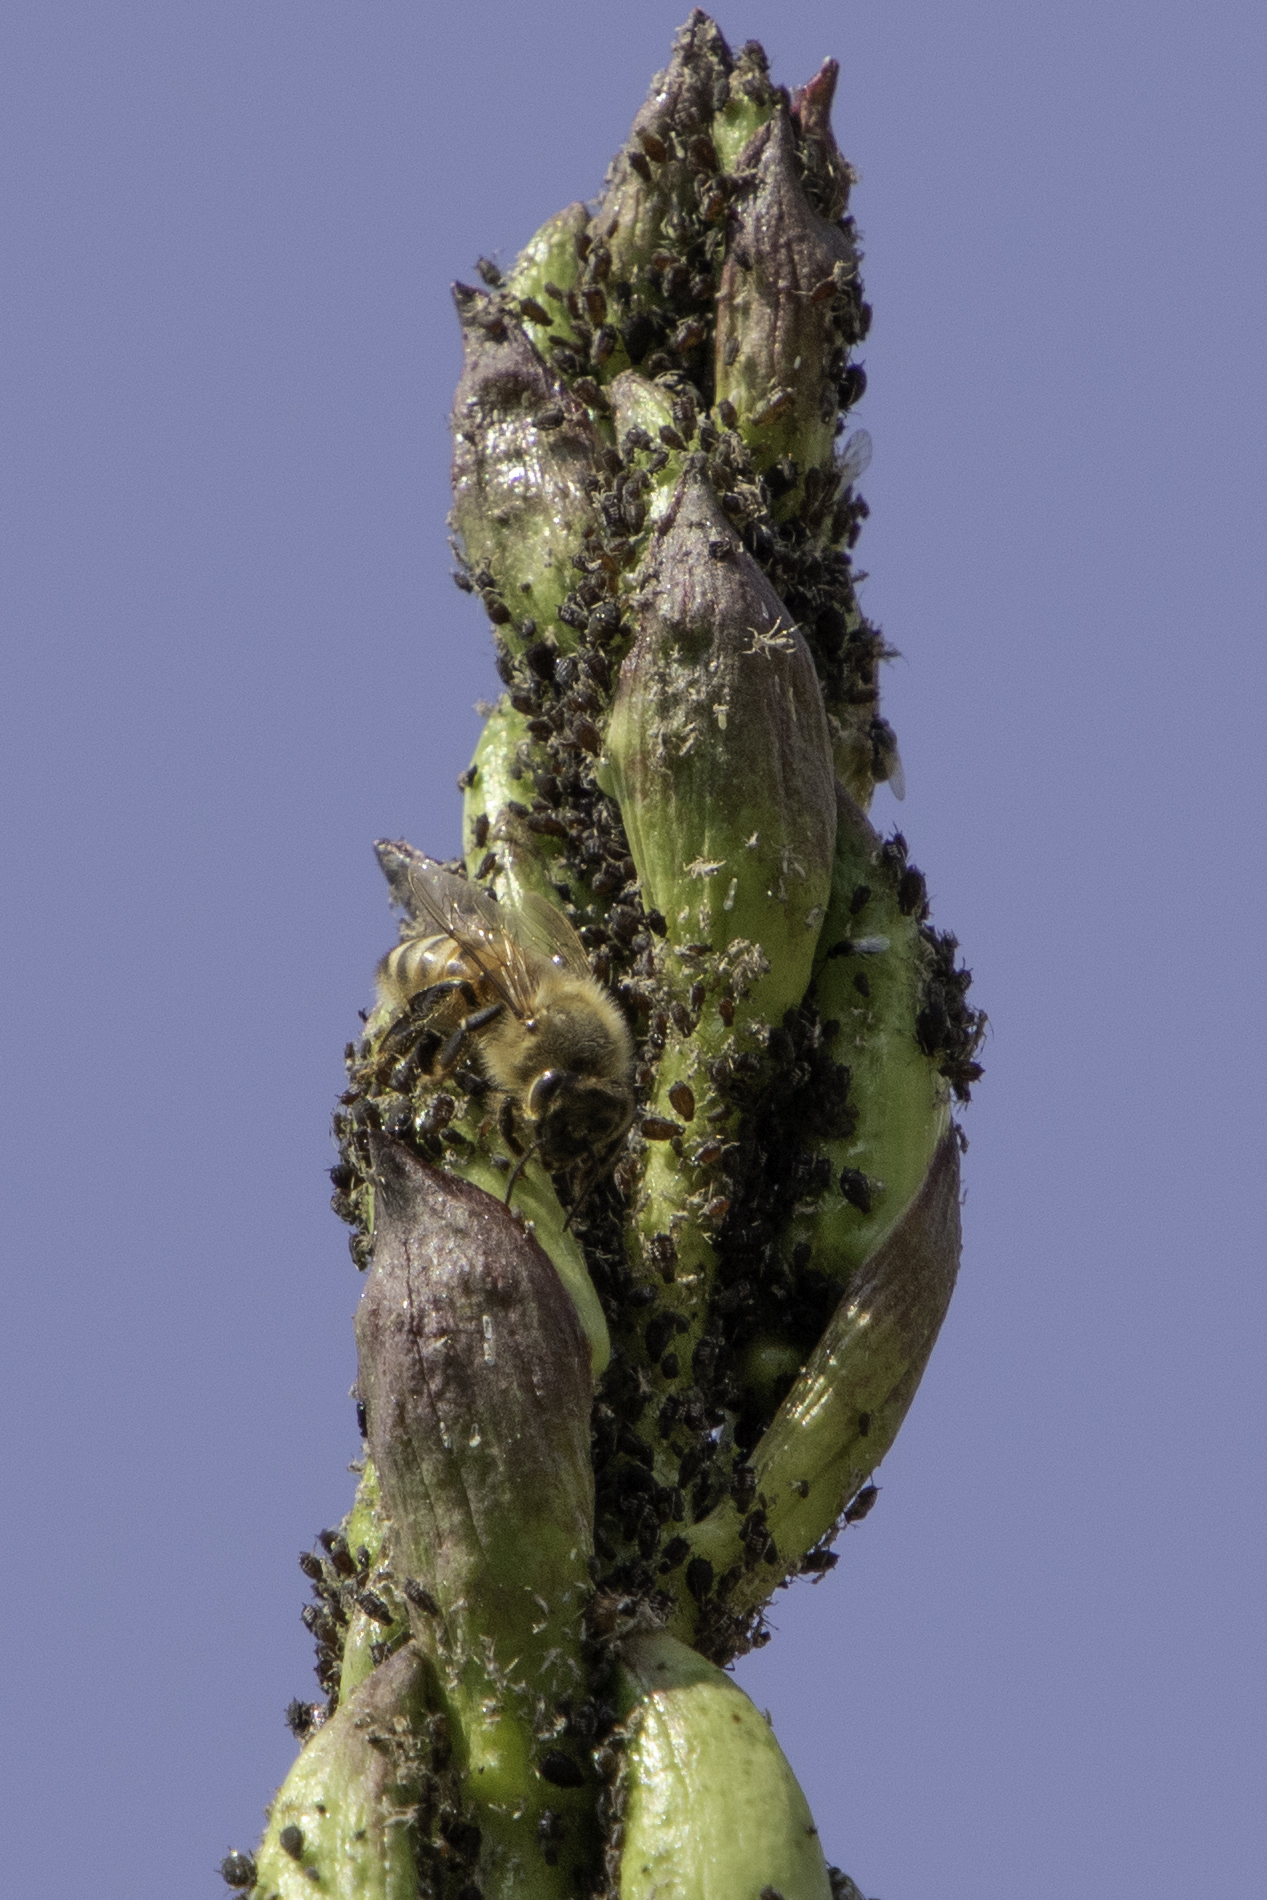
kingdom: Animalia
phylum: Arthropoda
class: Insecta
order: Hymenoptera
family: Apidae
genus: Apis
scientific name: Apis mellifera
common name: Honey bee
